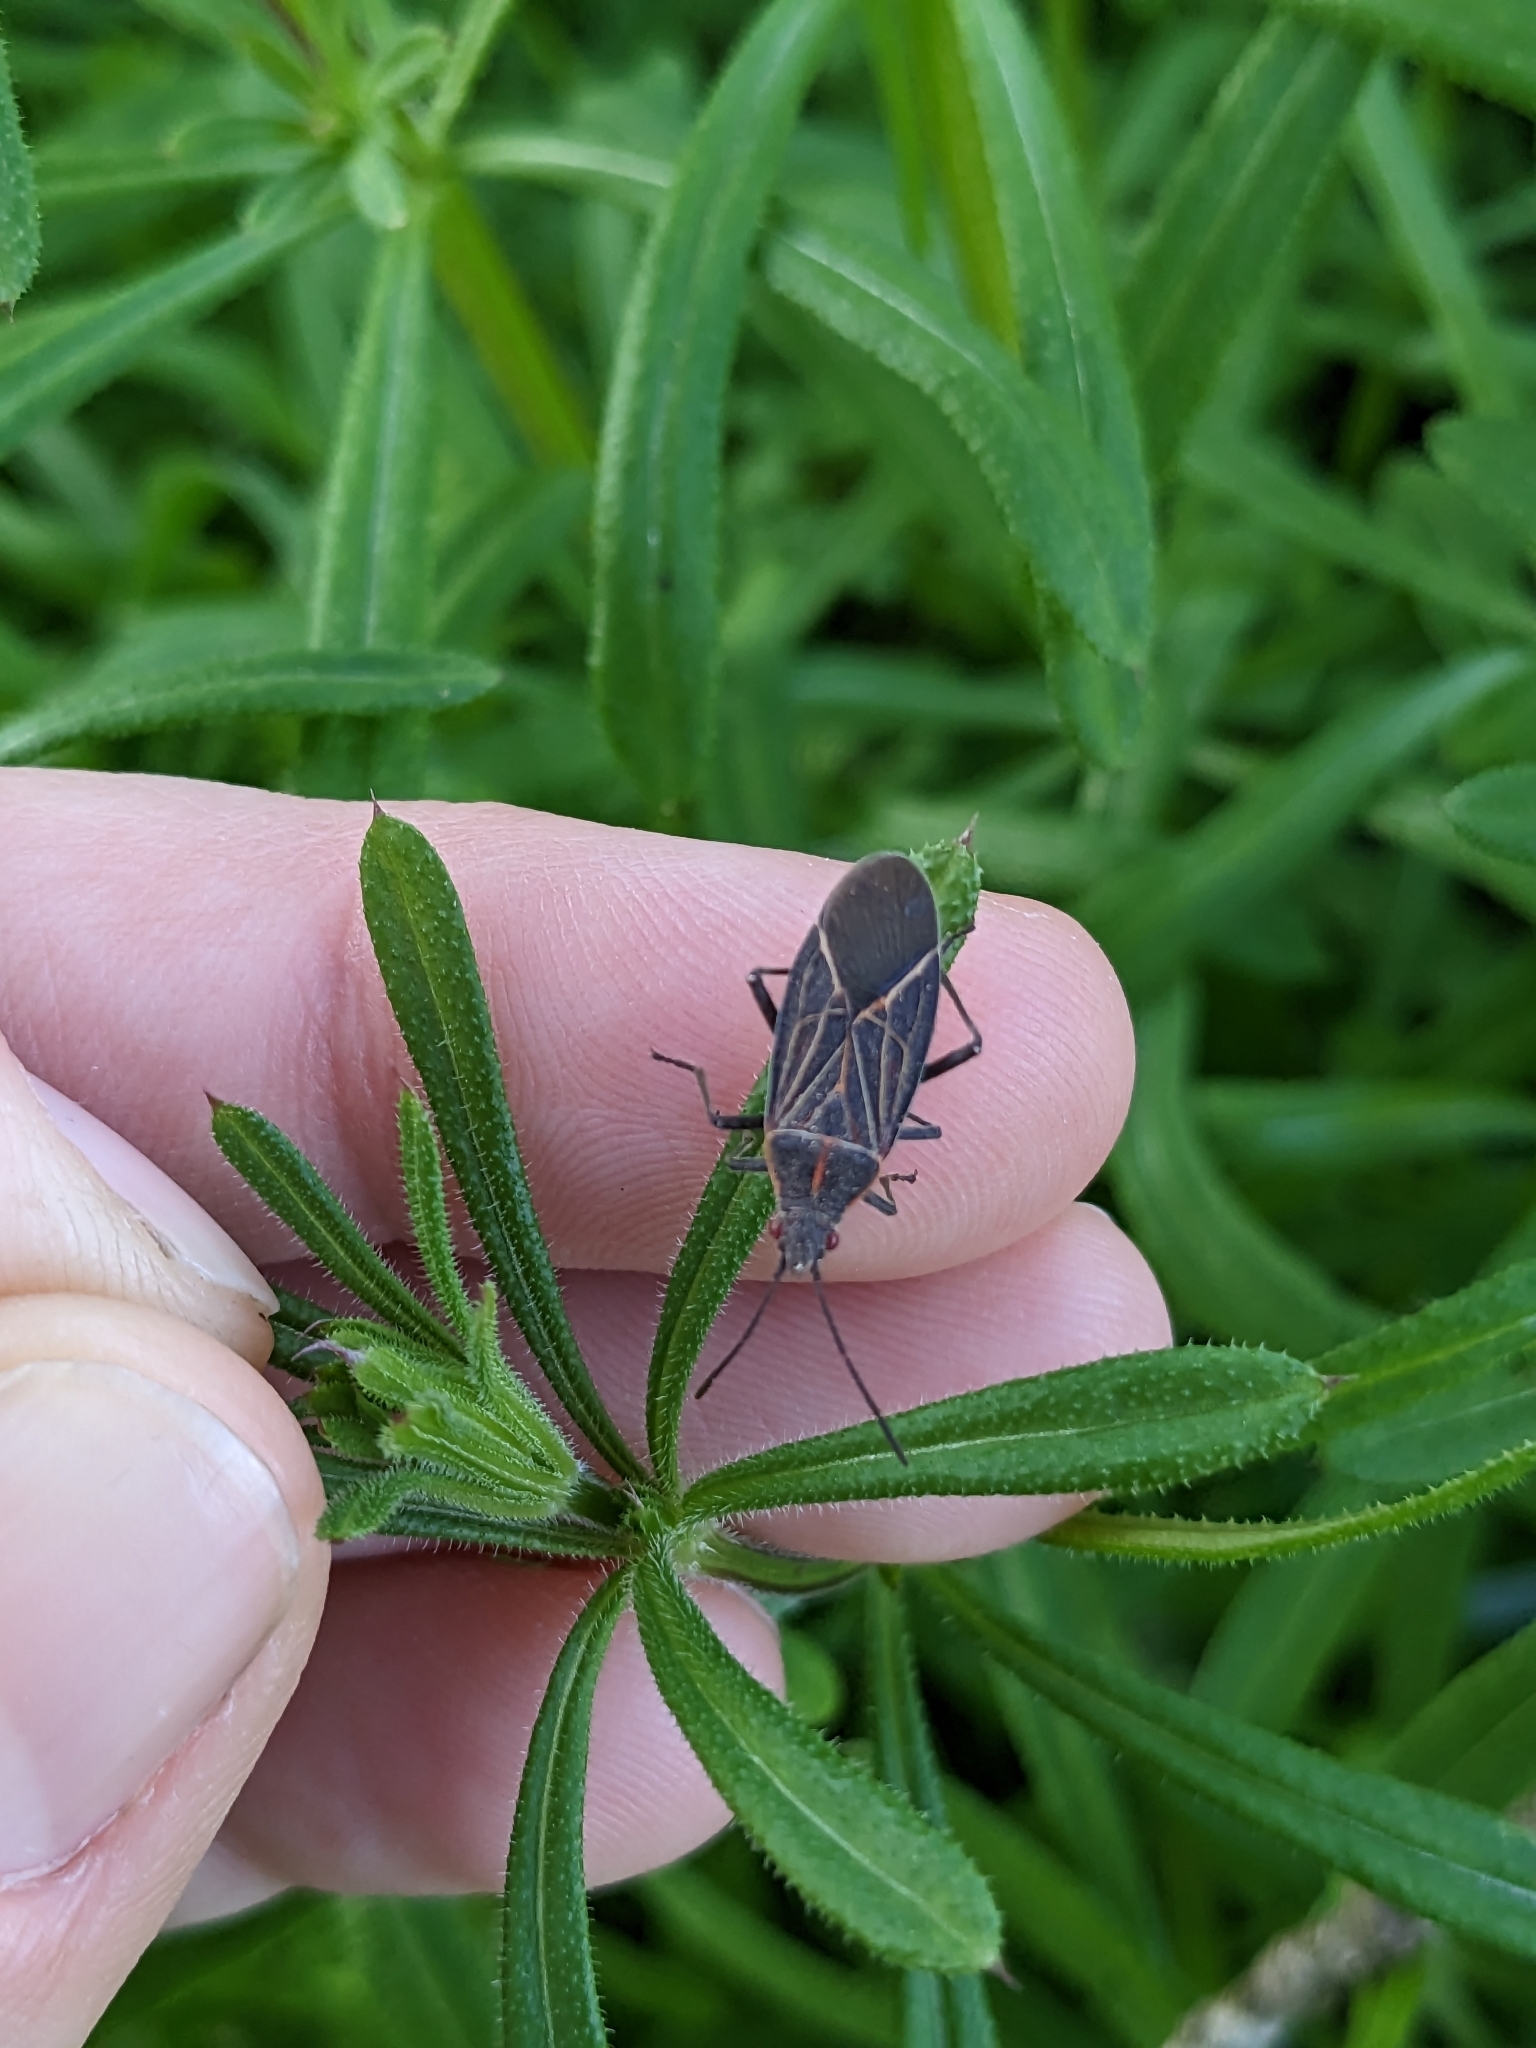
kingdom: Animalia
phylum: Arthropoda
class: Insecta
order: Hemiptera
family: Rhopalidae
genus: Boisea
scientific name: Boisea rubrolineata
